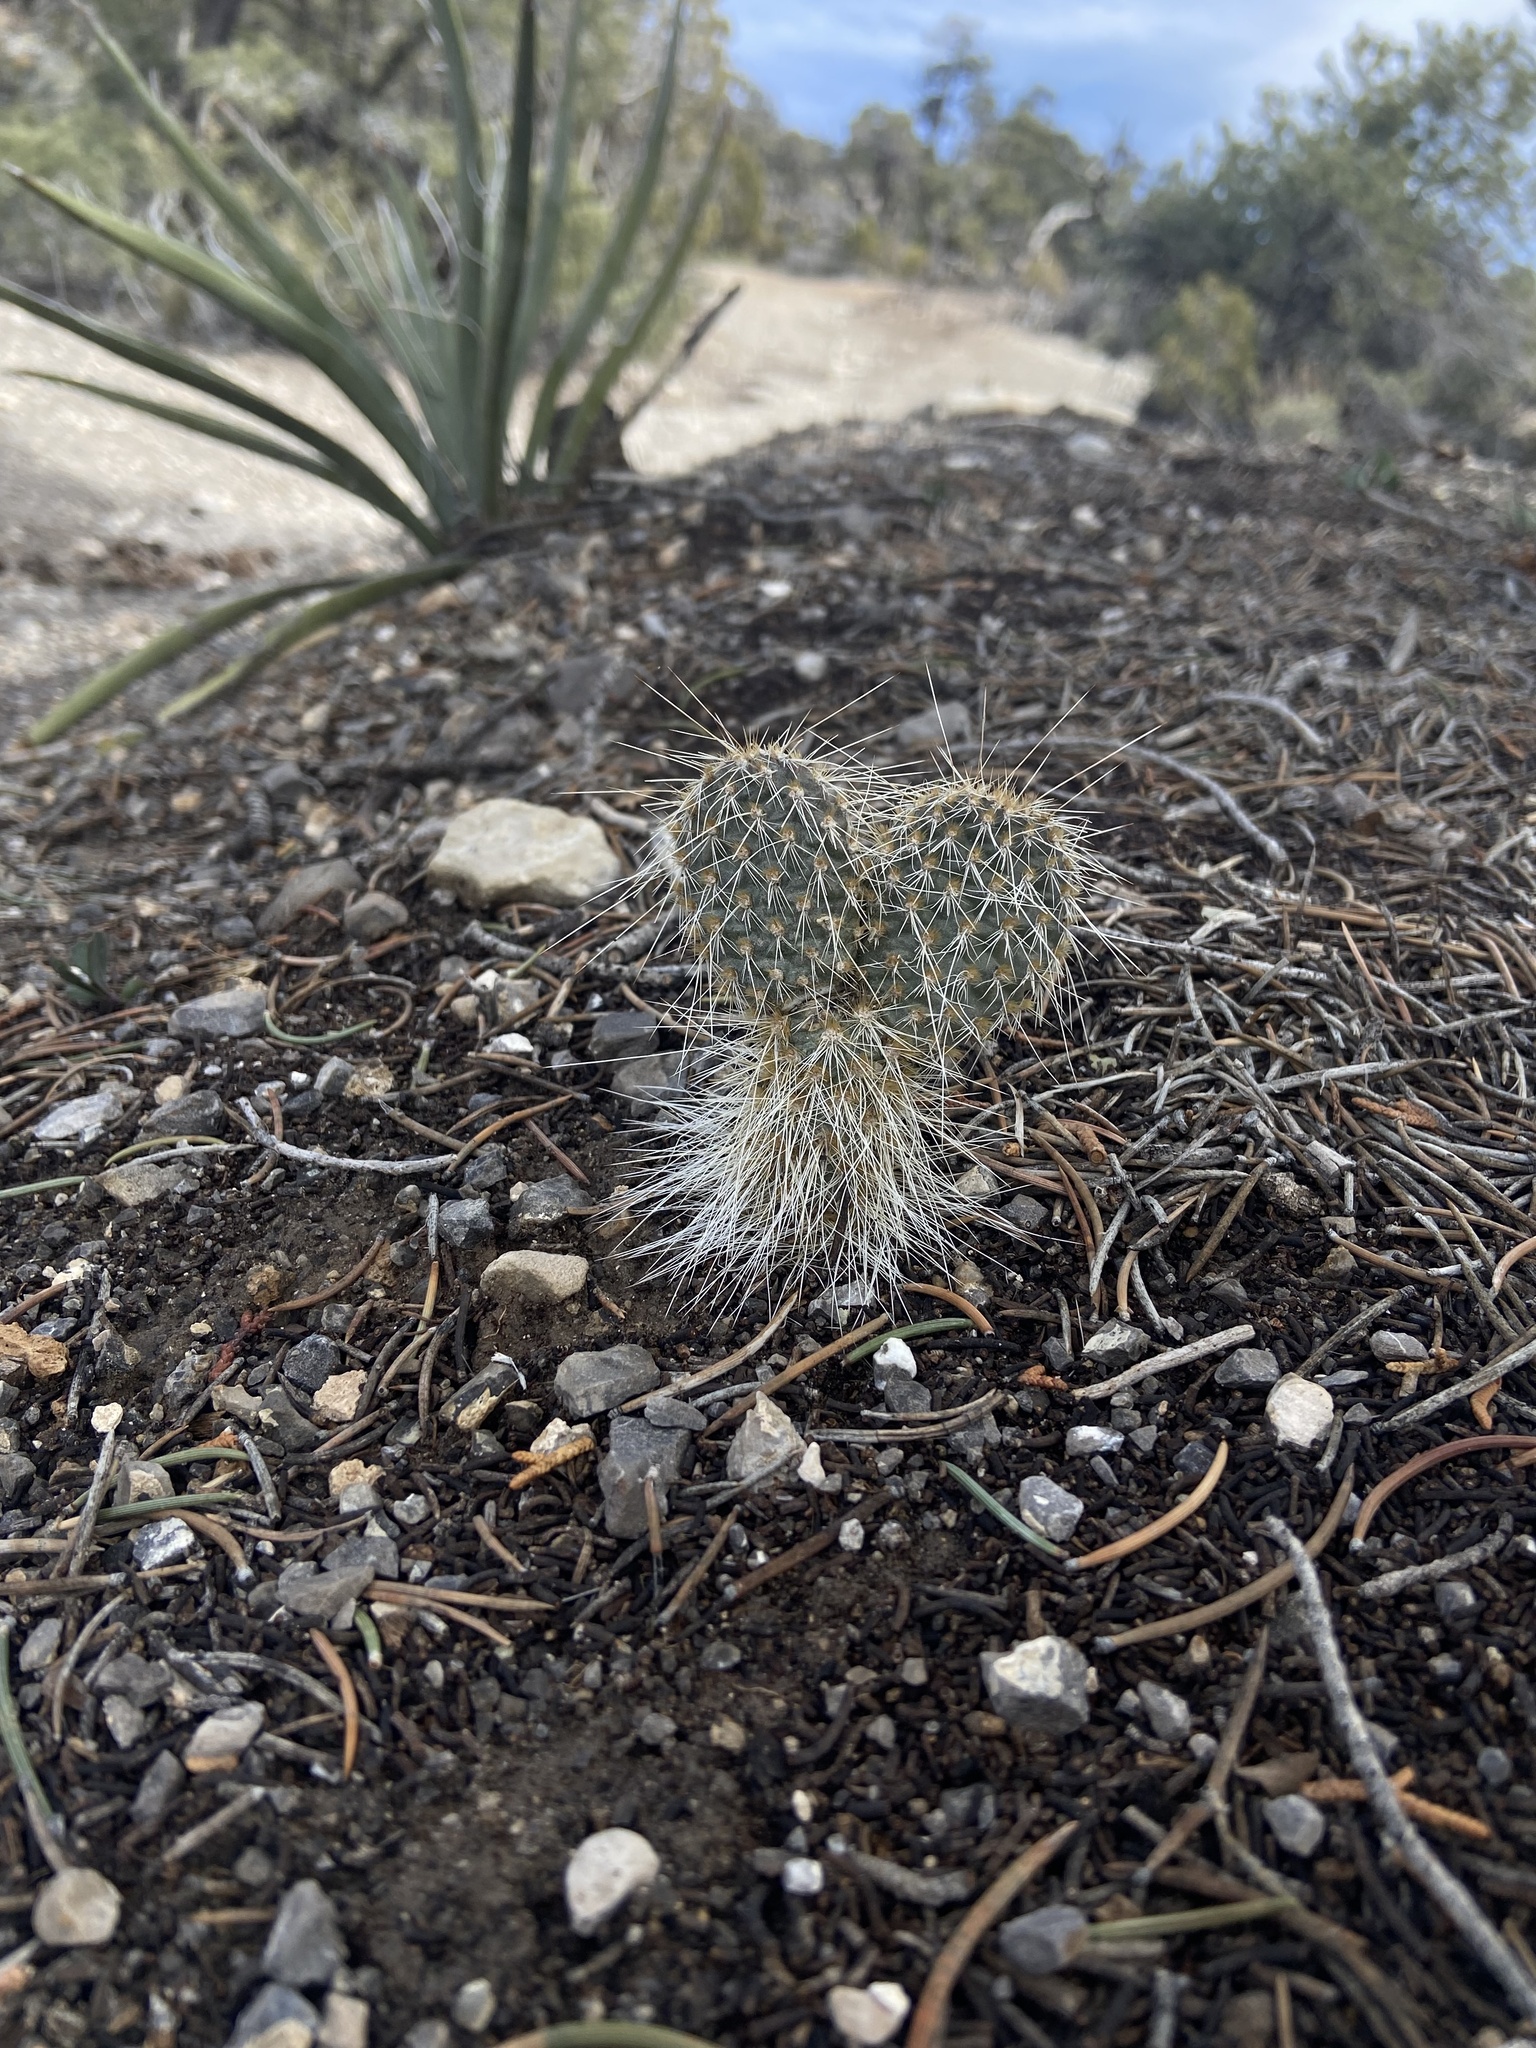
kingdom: Plantae
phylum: Tracheophyta
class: Magnoliopsida
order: Caryophyllales
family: Cactaceae
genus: Opuntia
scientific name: Opuntia polyacantha
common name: Plains prickly-pear
